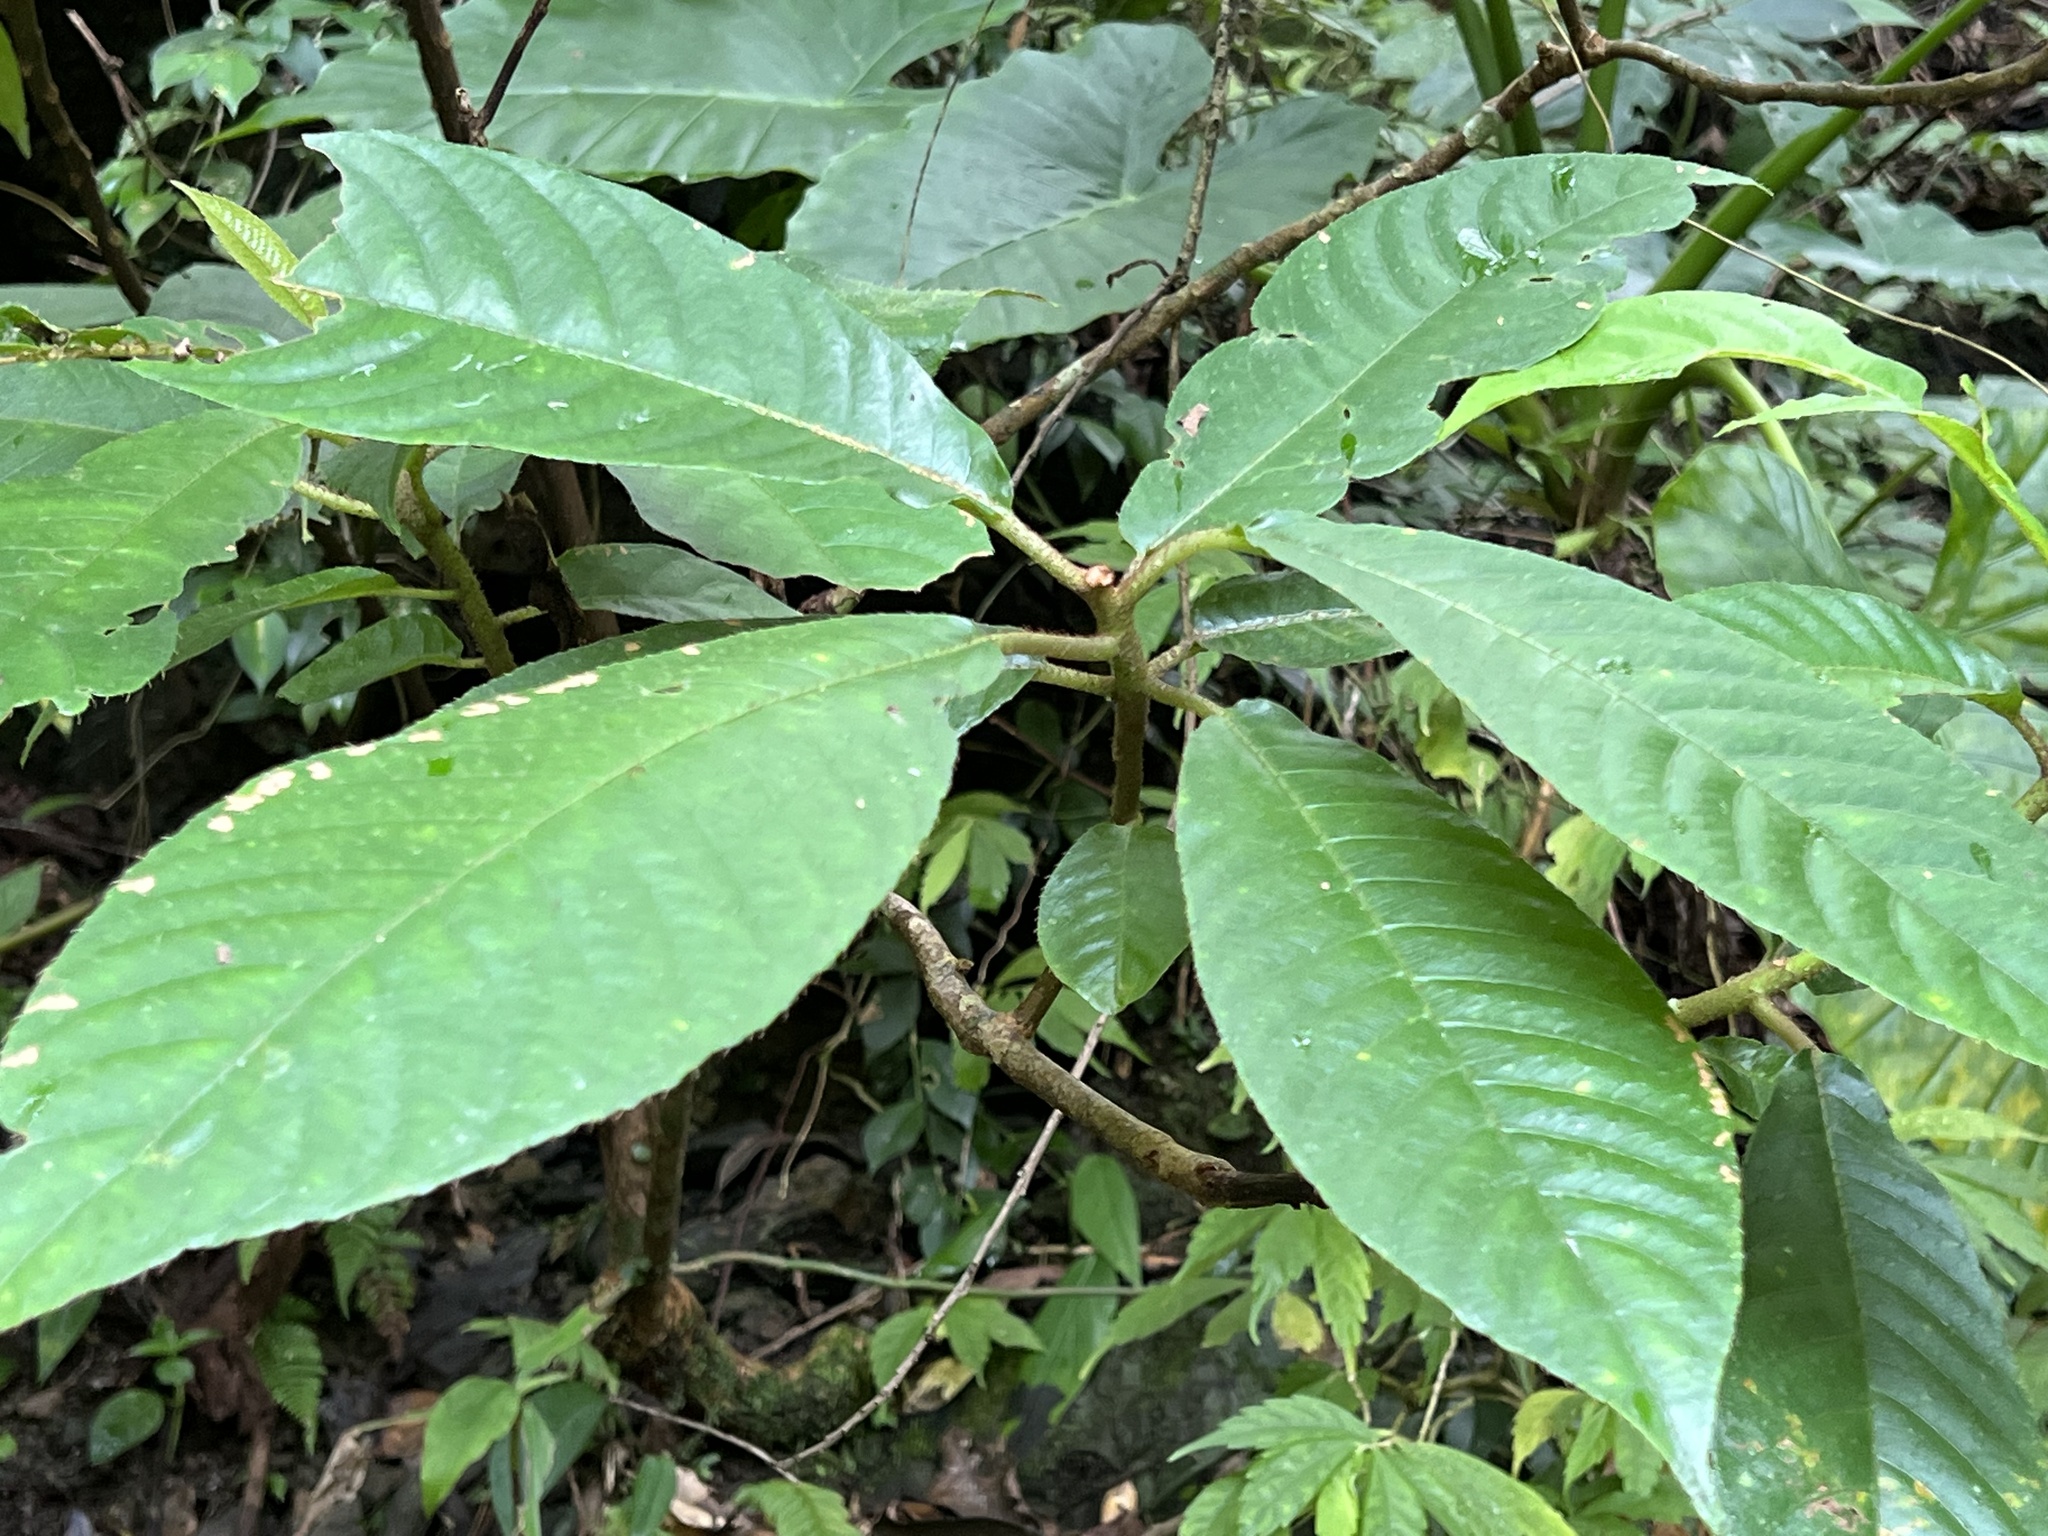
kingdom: Plantae
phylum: Tracheophyta
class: Magnoliopsida
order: Ericales
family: Actinidiaceae
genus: Saurauia
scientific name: Saurauia tristyla
